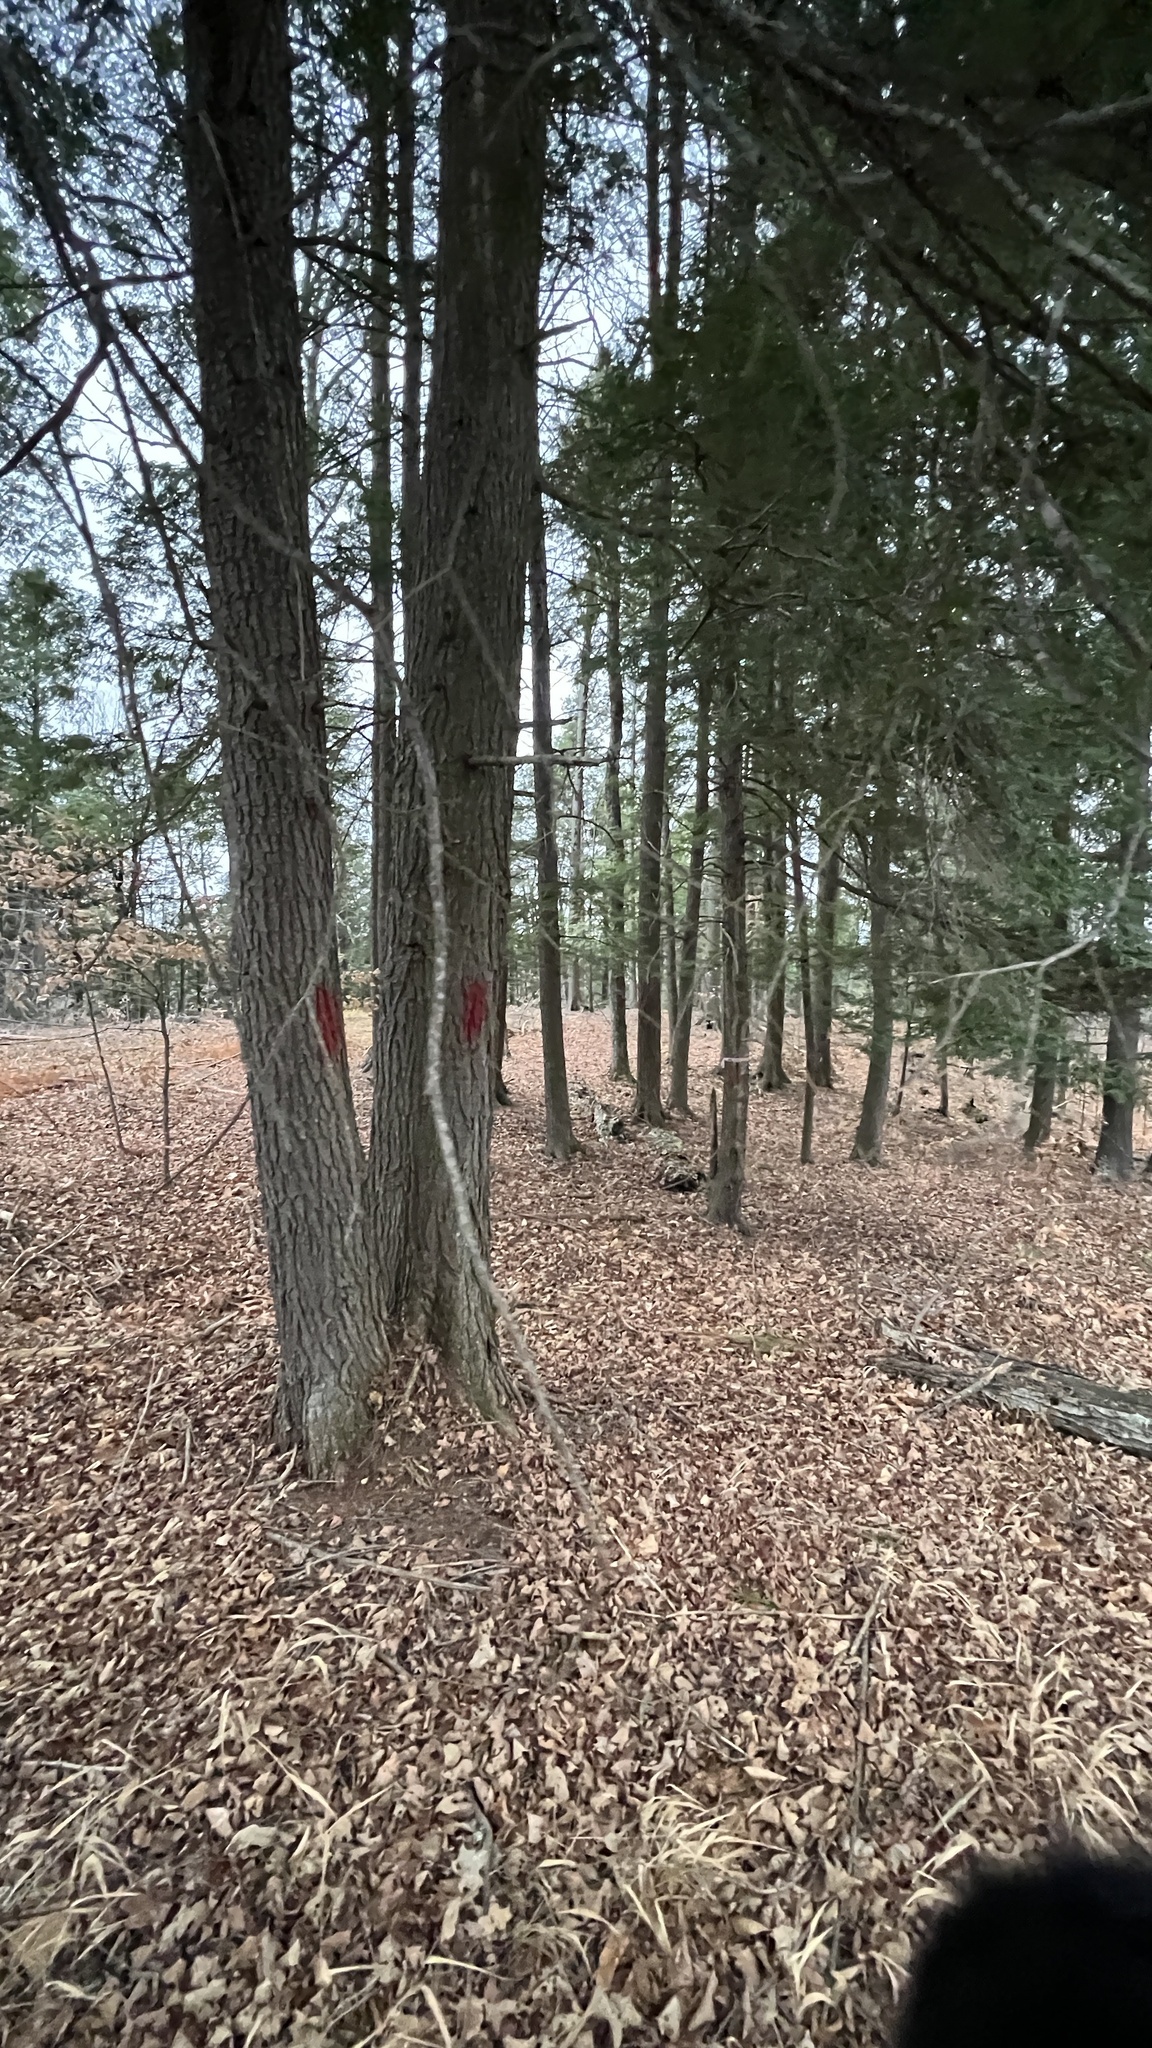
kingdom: Plantae
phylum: Tracheophyta
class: Pinopsida
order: Pinales
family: Pinaceae
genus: Tsuga
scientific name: Tsuga canadensis
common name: Eastern hemlock
